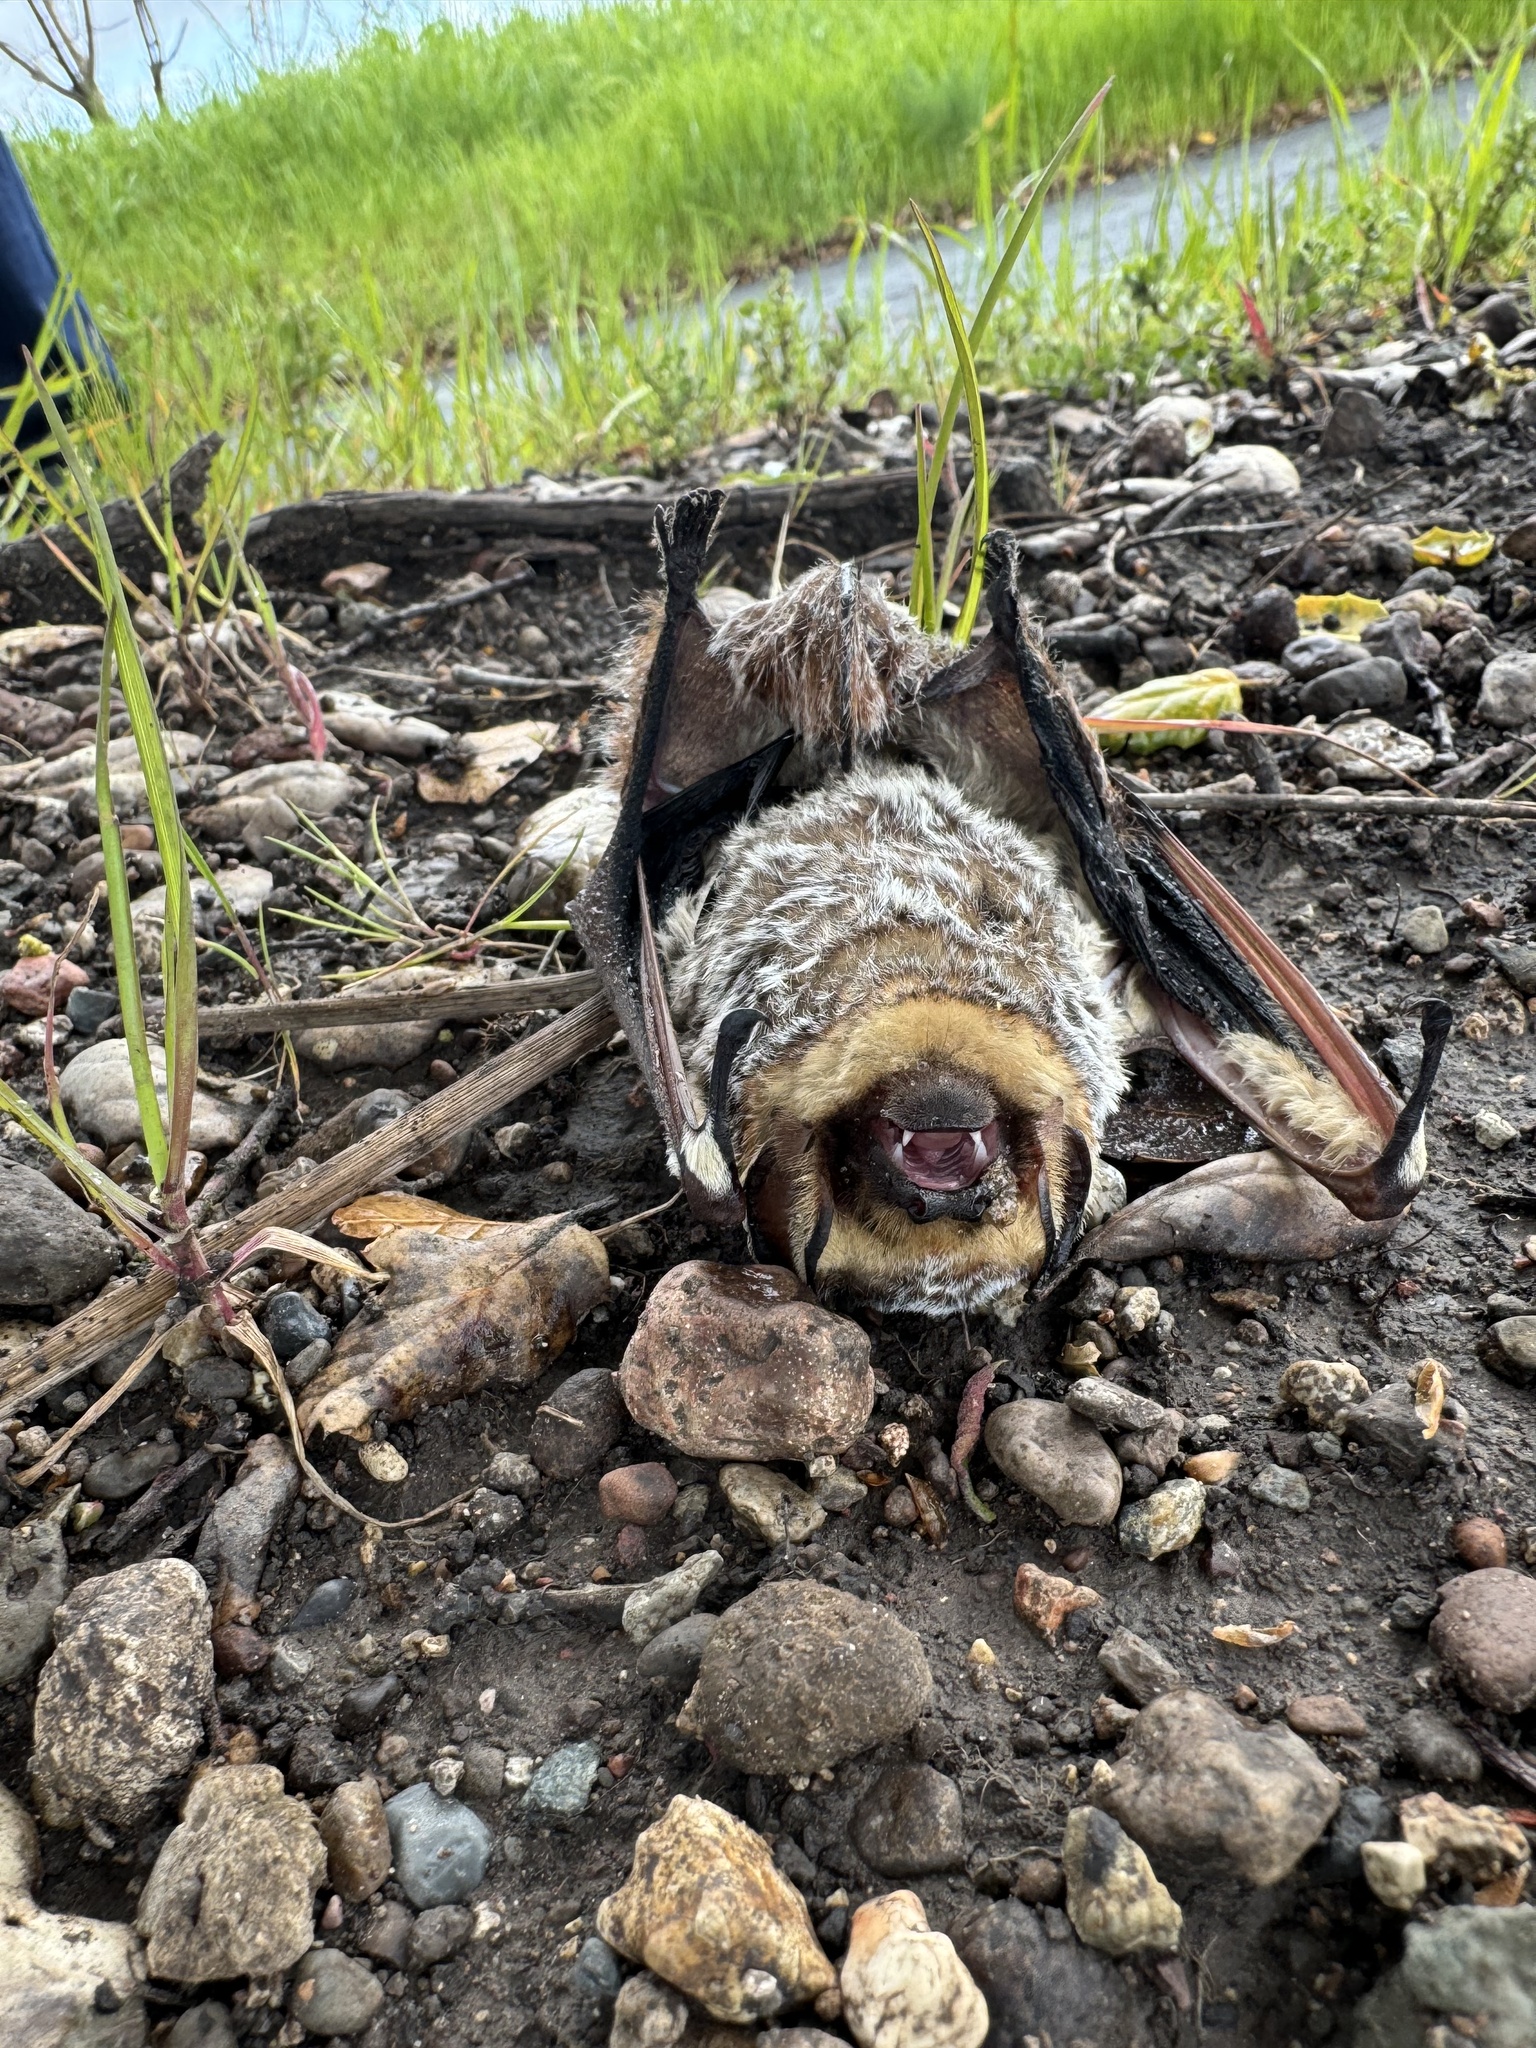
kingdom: Animalia
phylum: Chordata
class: Mammalia
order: Chiroptera
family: Vespertilionidae
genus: Aeorestes
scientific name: Aeorestes cinereus
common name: North american hoary bat
